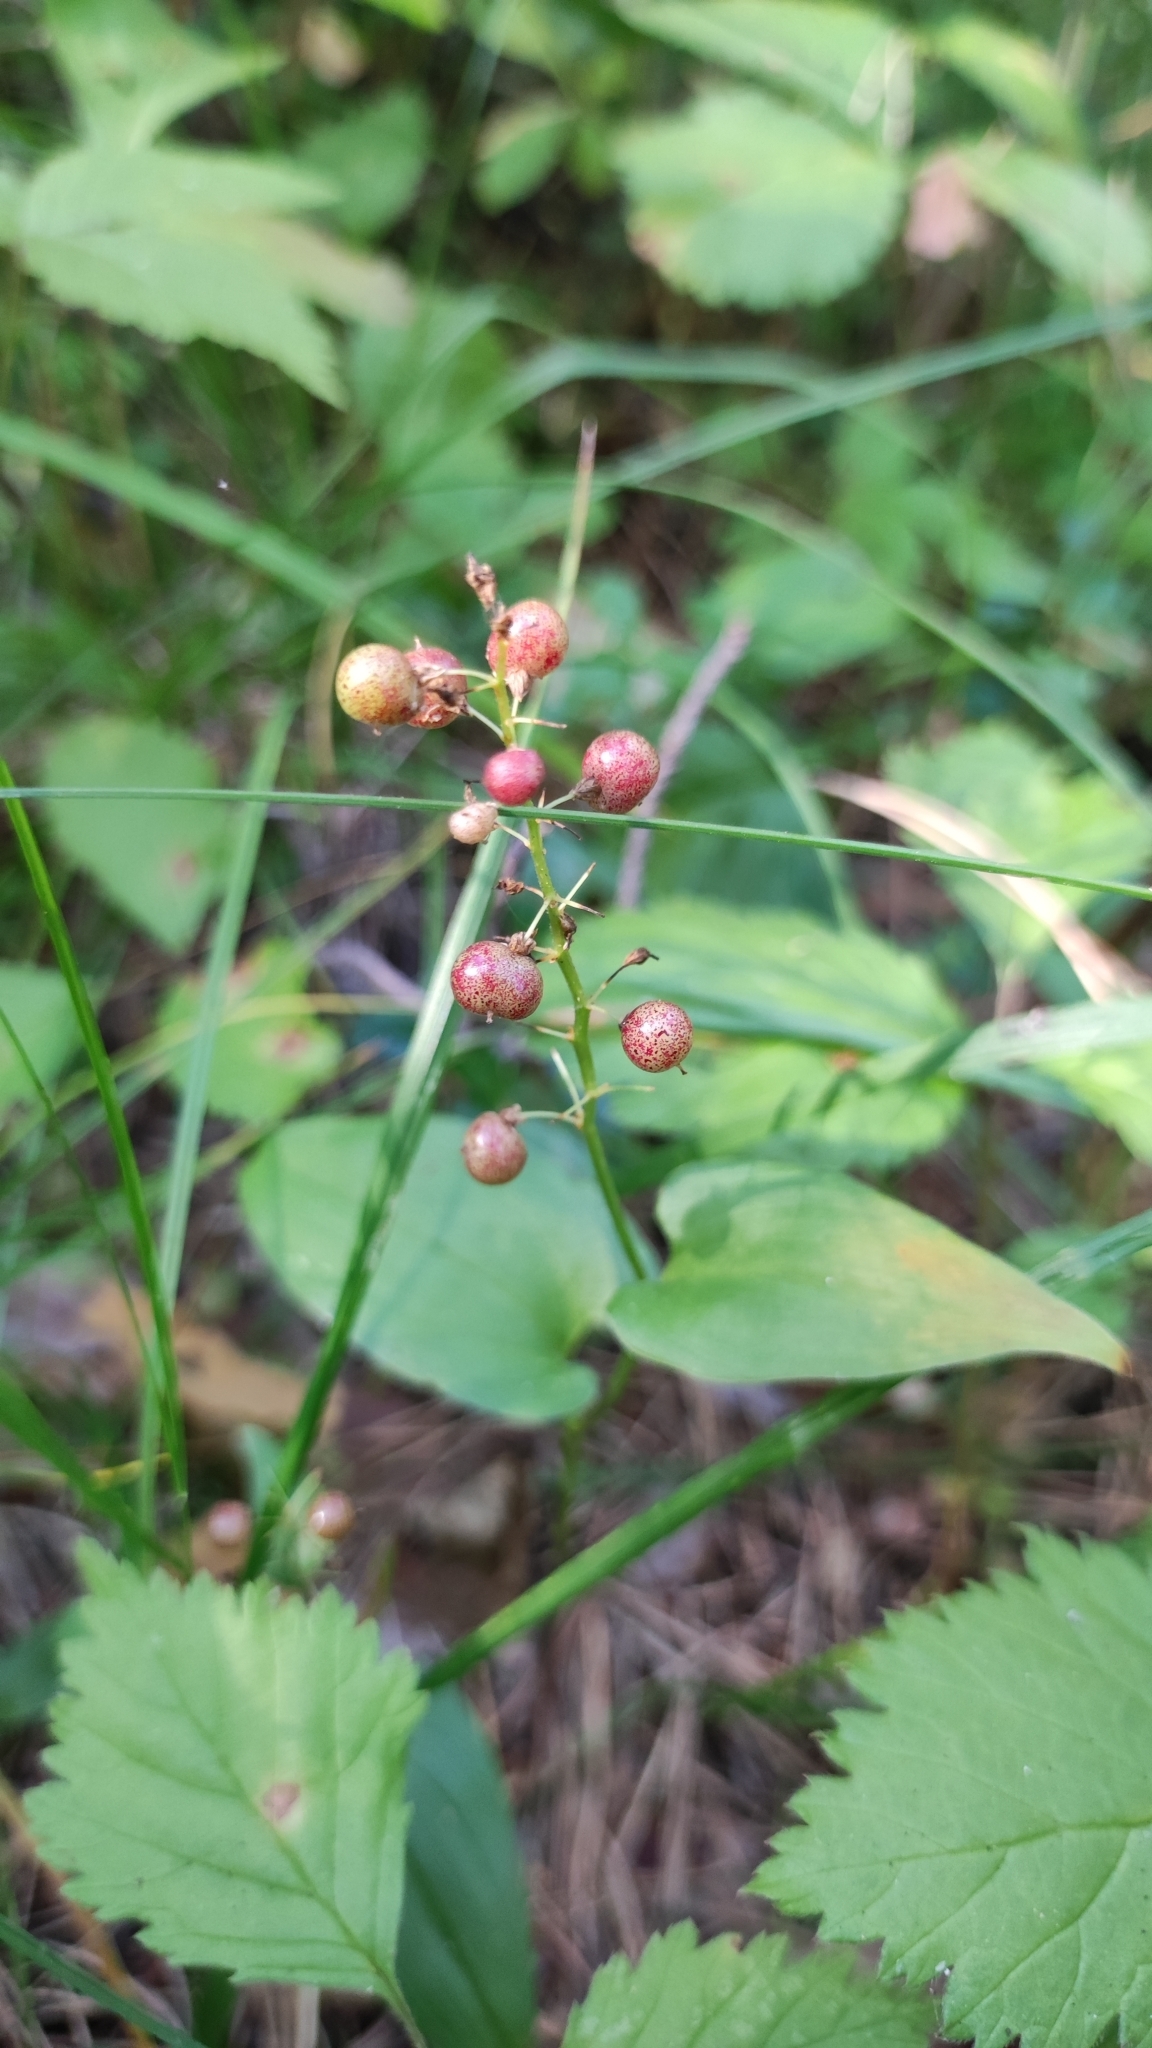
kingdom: Plantae
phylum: Tracheophyta
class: Liliopsida
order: Asparagales
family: Asparagaceae
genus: Maianthemum
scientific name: Maianthemum bifolium
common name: May lily
